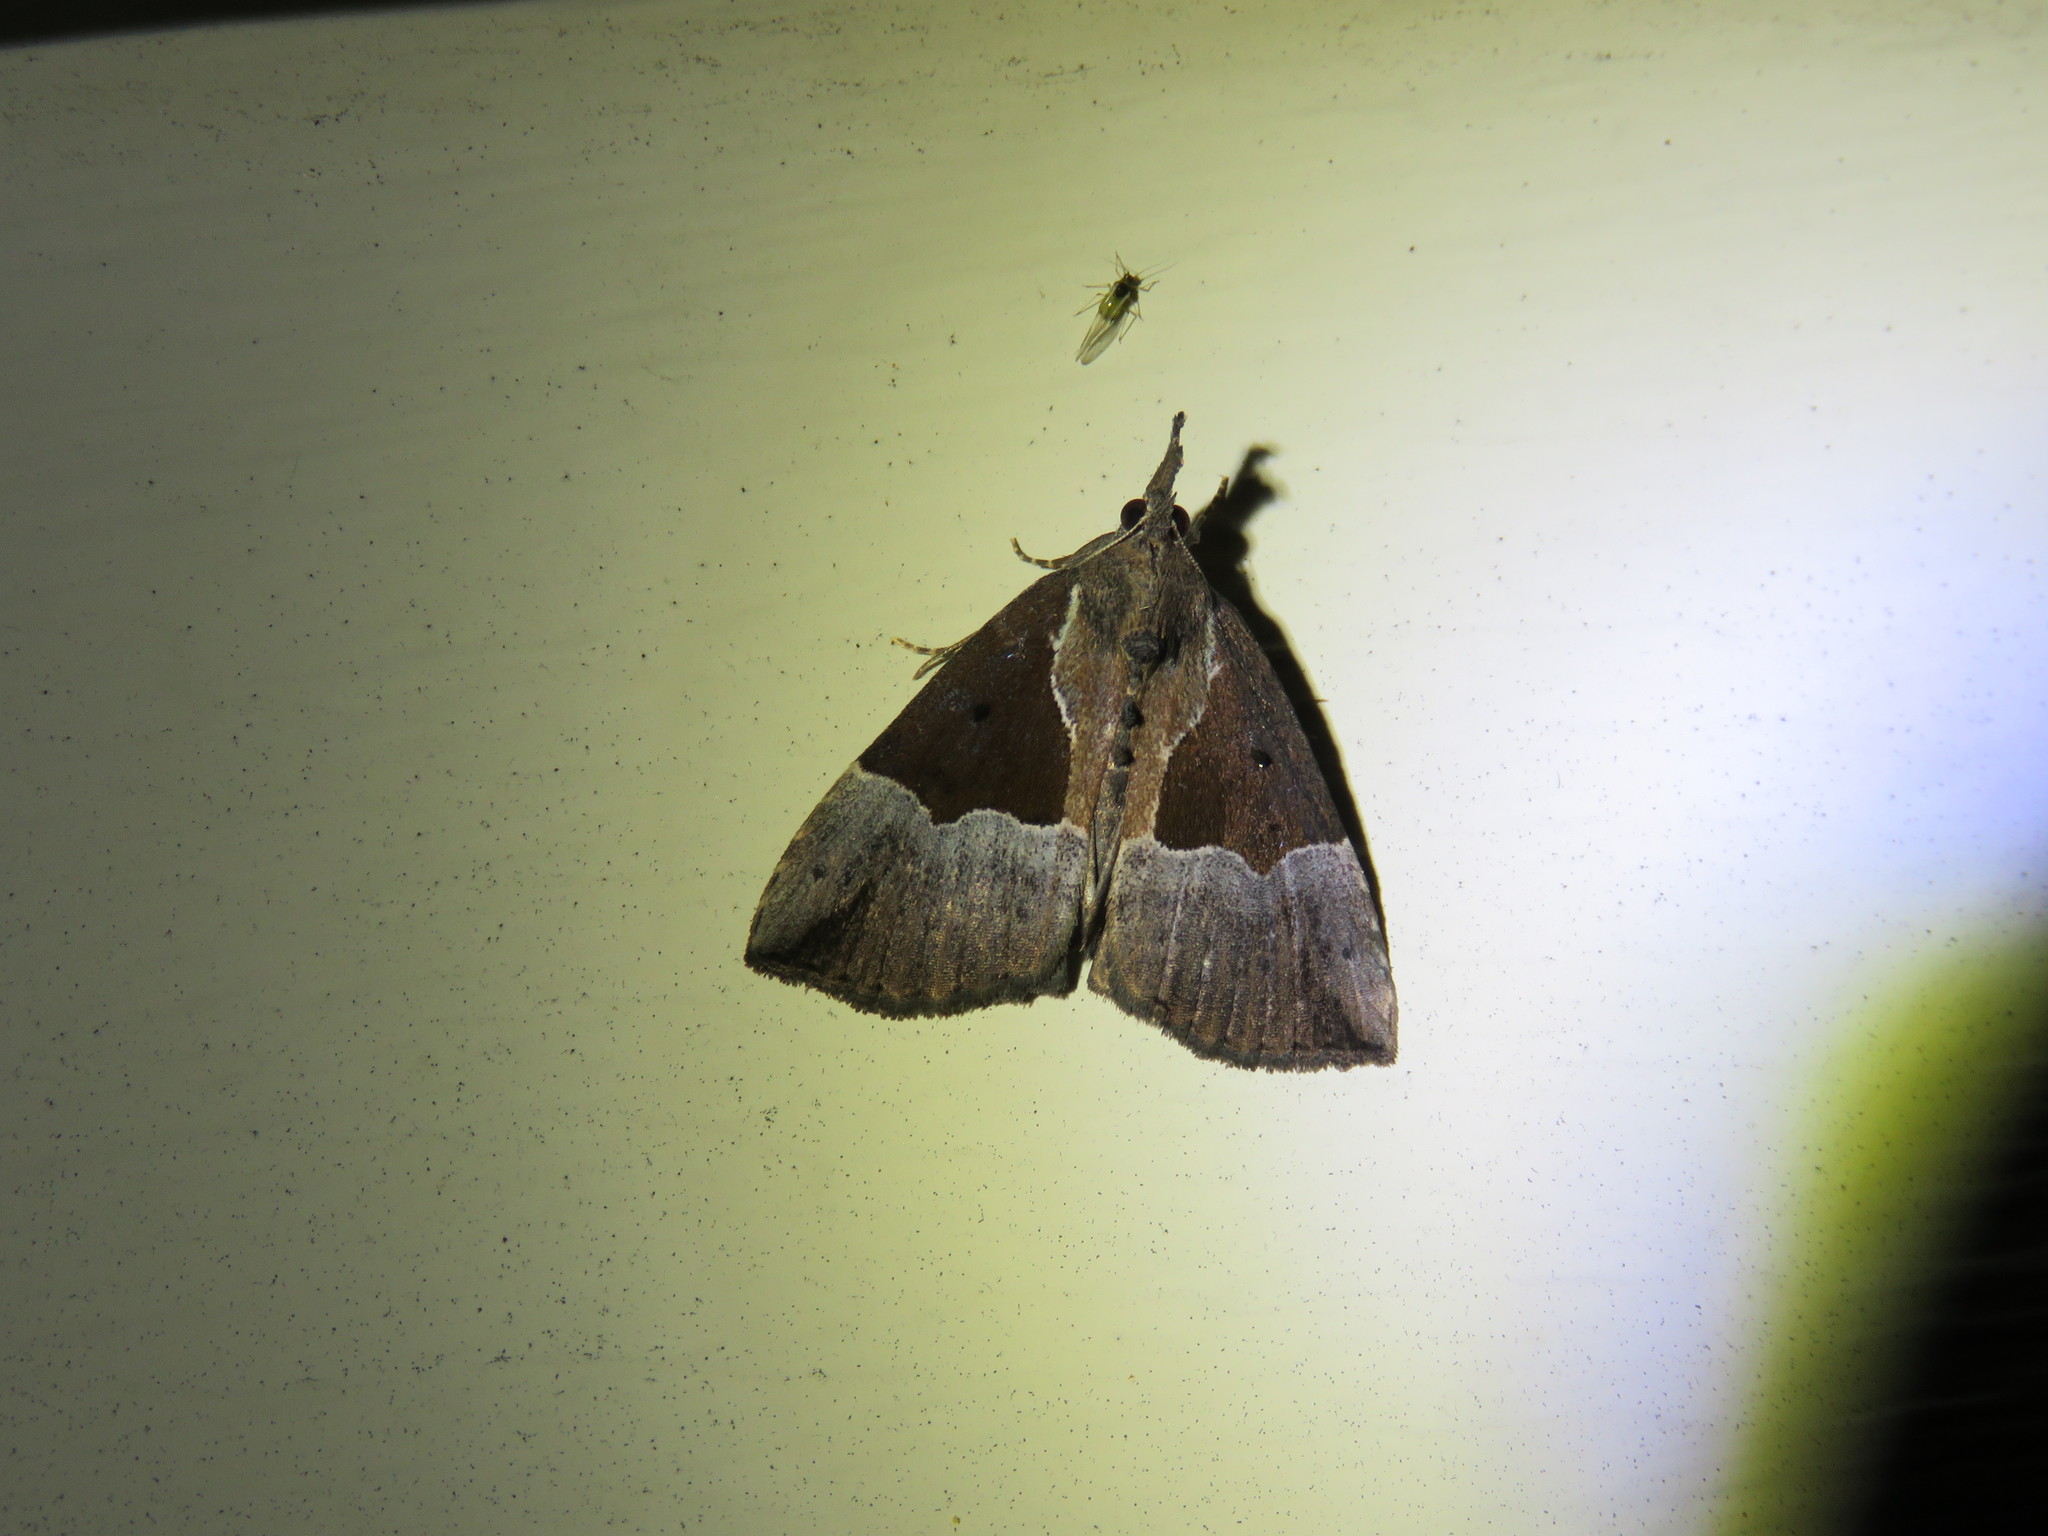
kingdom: Animalia
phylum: Arthropoda
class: Insecta
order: Lepidoptera
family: Erebidae
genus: Hypena
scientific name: Hypena bijugalis
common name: Dimorphic bomolocha moth
